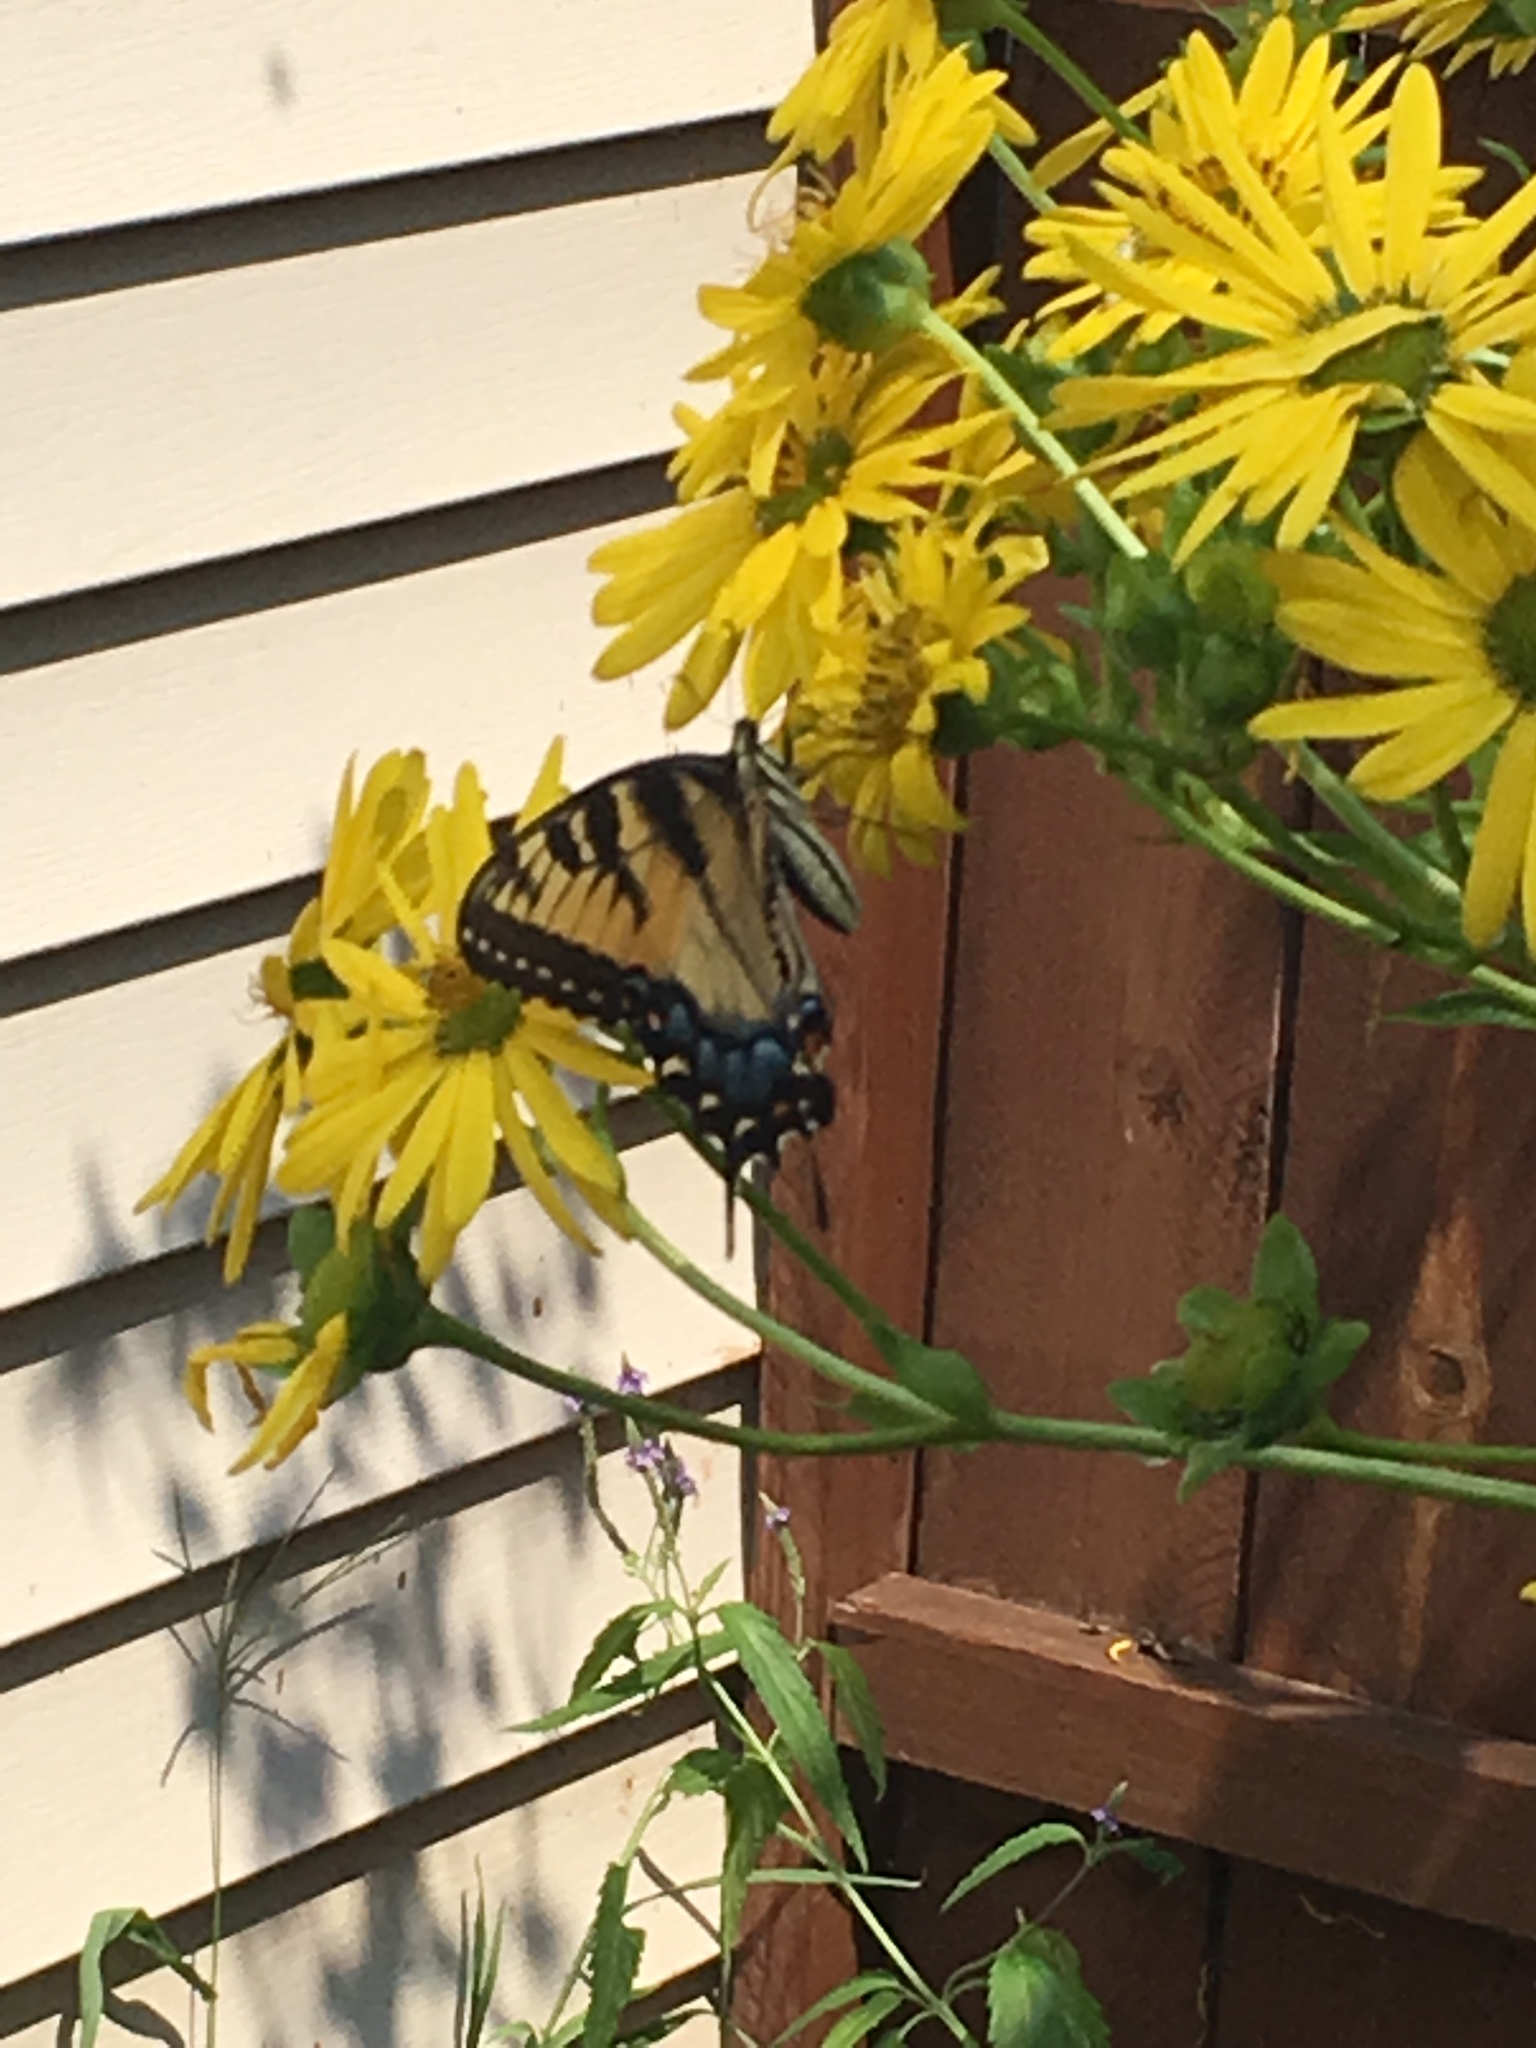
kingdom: Animalia
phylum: Arthropoda
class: Insecta
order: Lepidoptera
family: Papilionidae
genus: Papilio
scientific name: Papilio glaucus
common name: Tiger swallowtail
